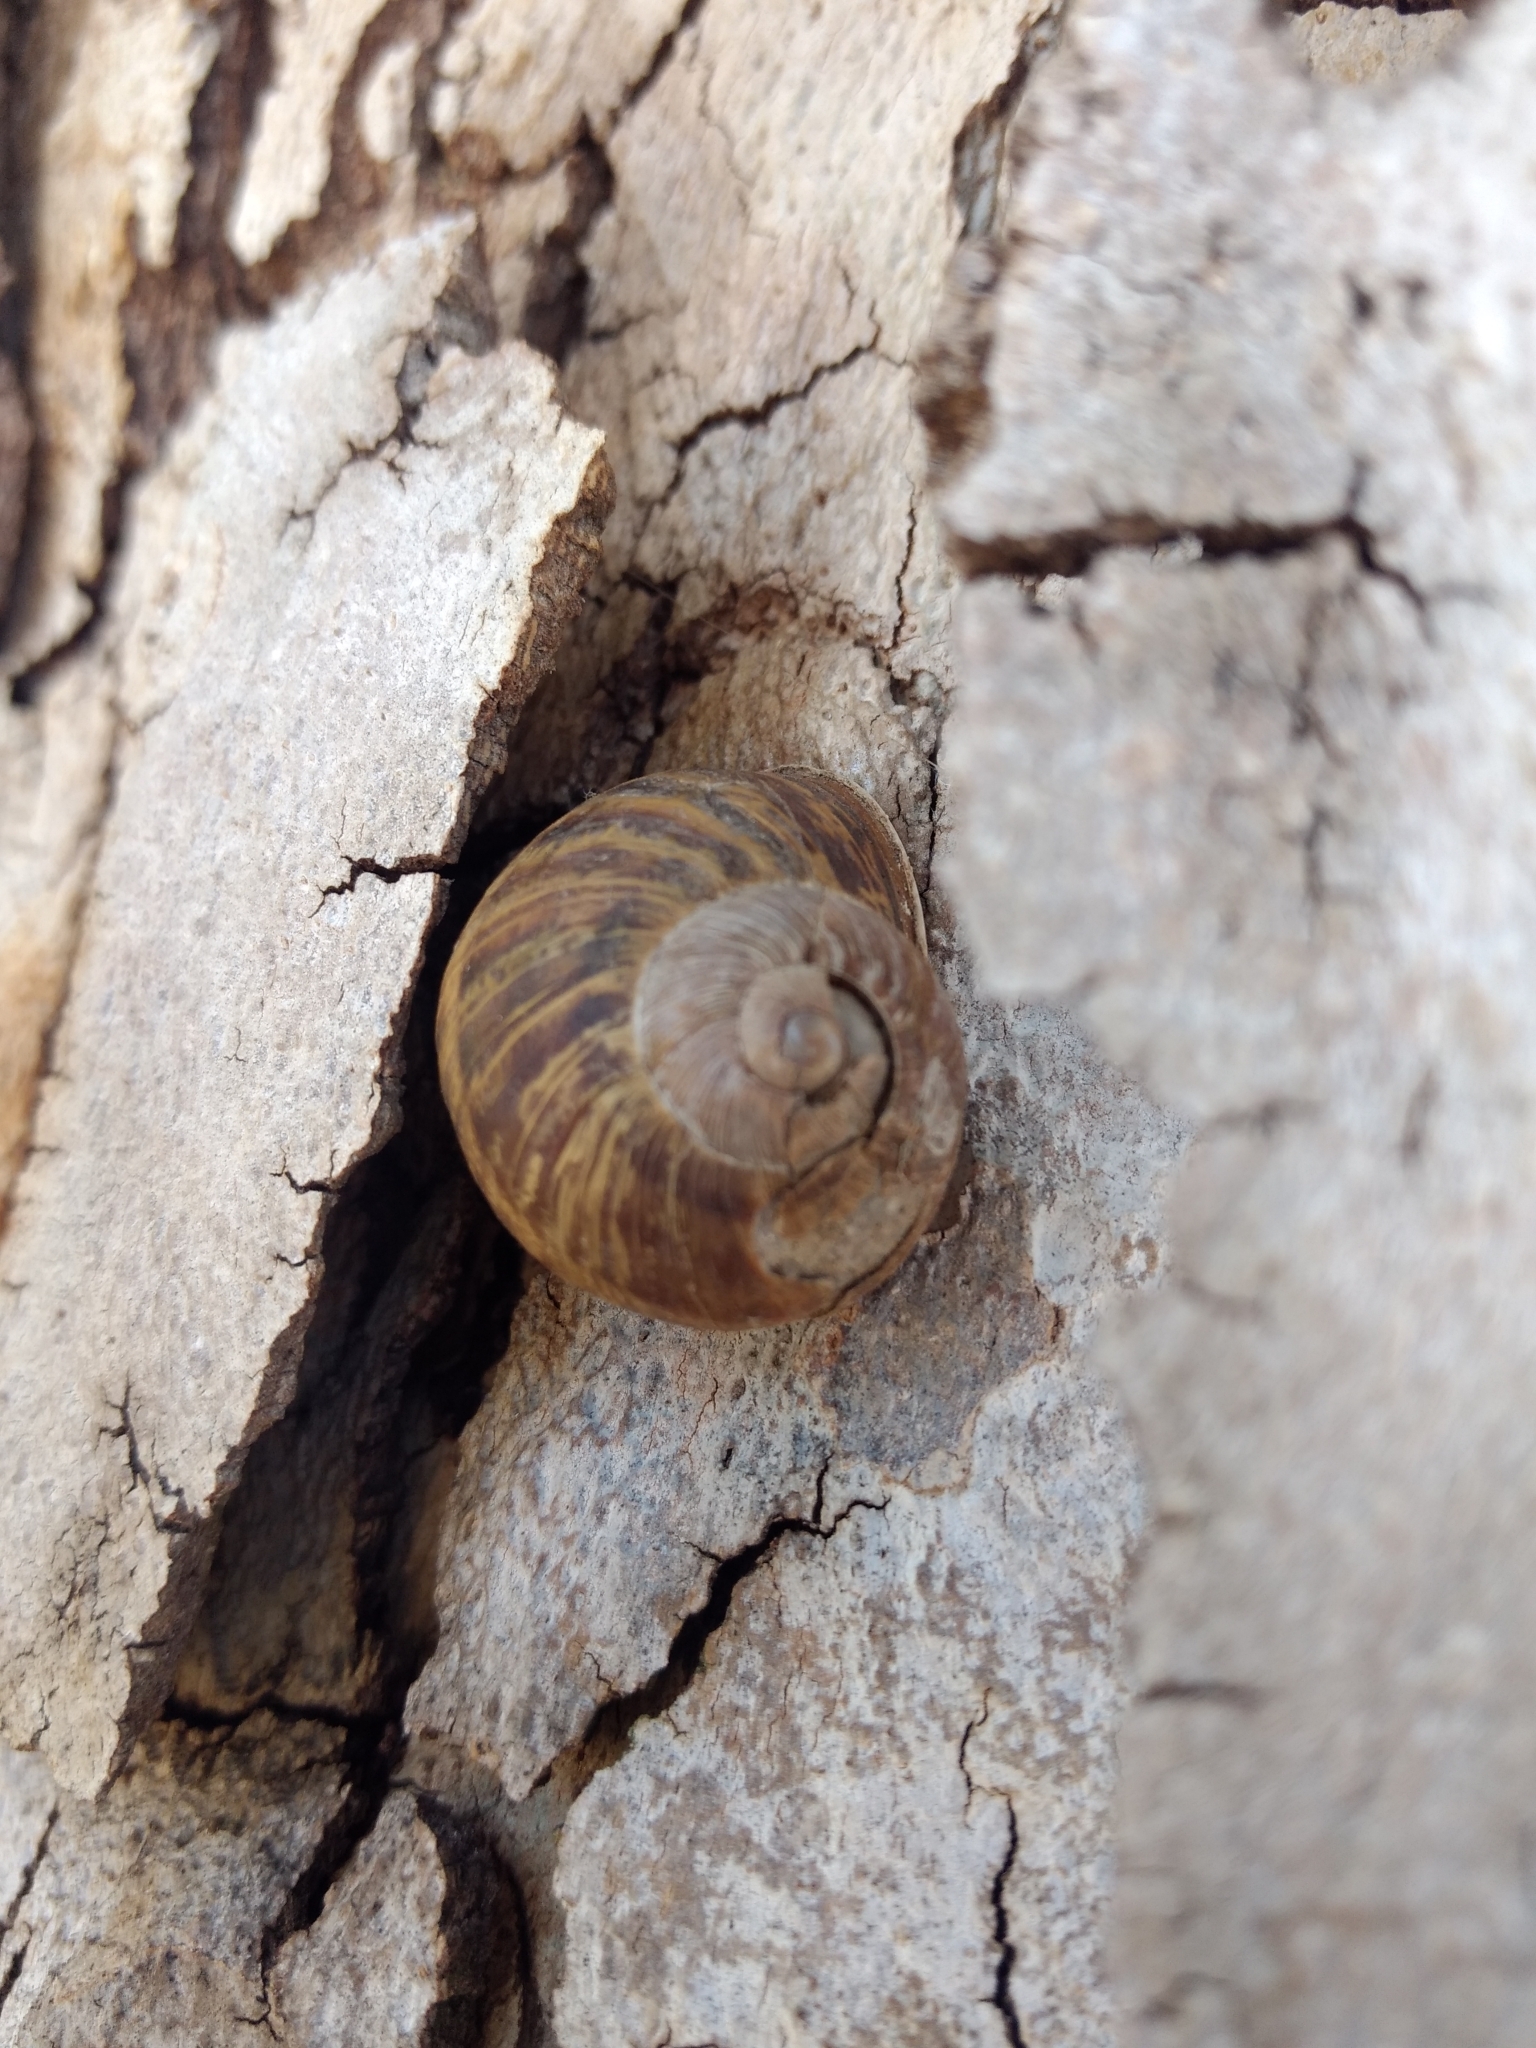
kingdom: Animalia
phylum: Mollusca
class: Gastropoda
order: Stylommatophora
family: Helicidae
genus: Cornu
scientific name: Cornu aspersum
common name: Brown garden snail
